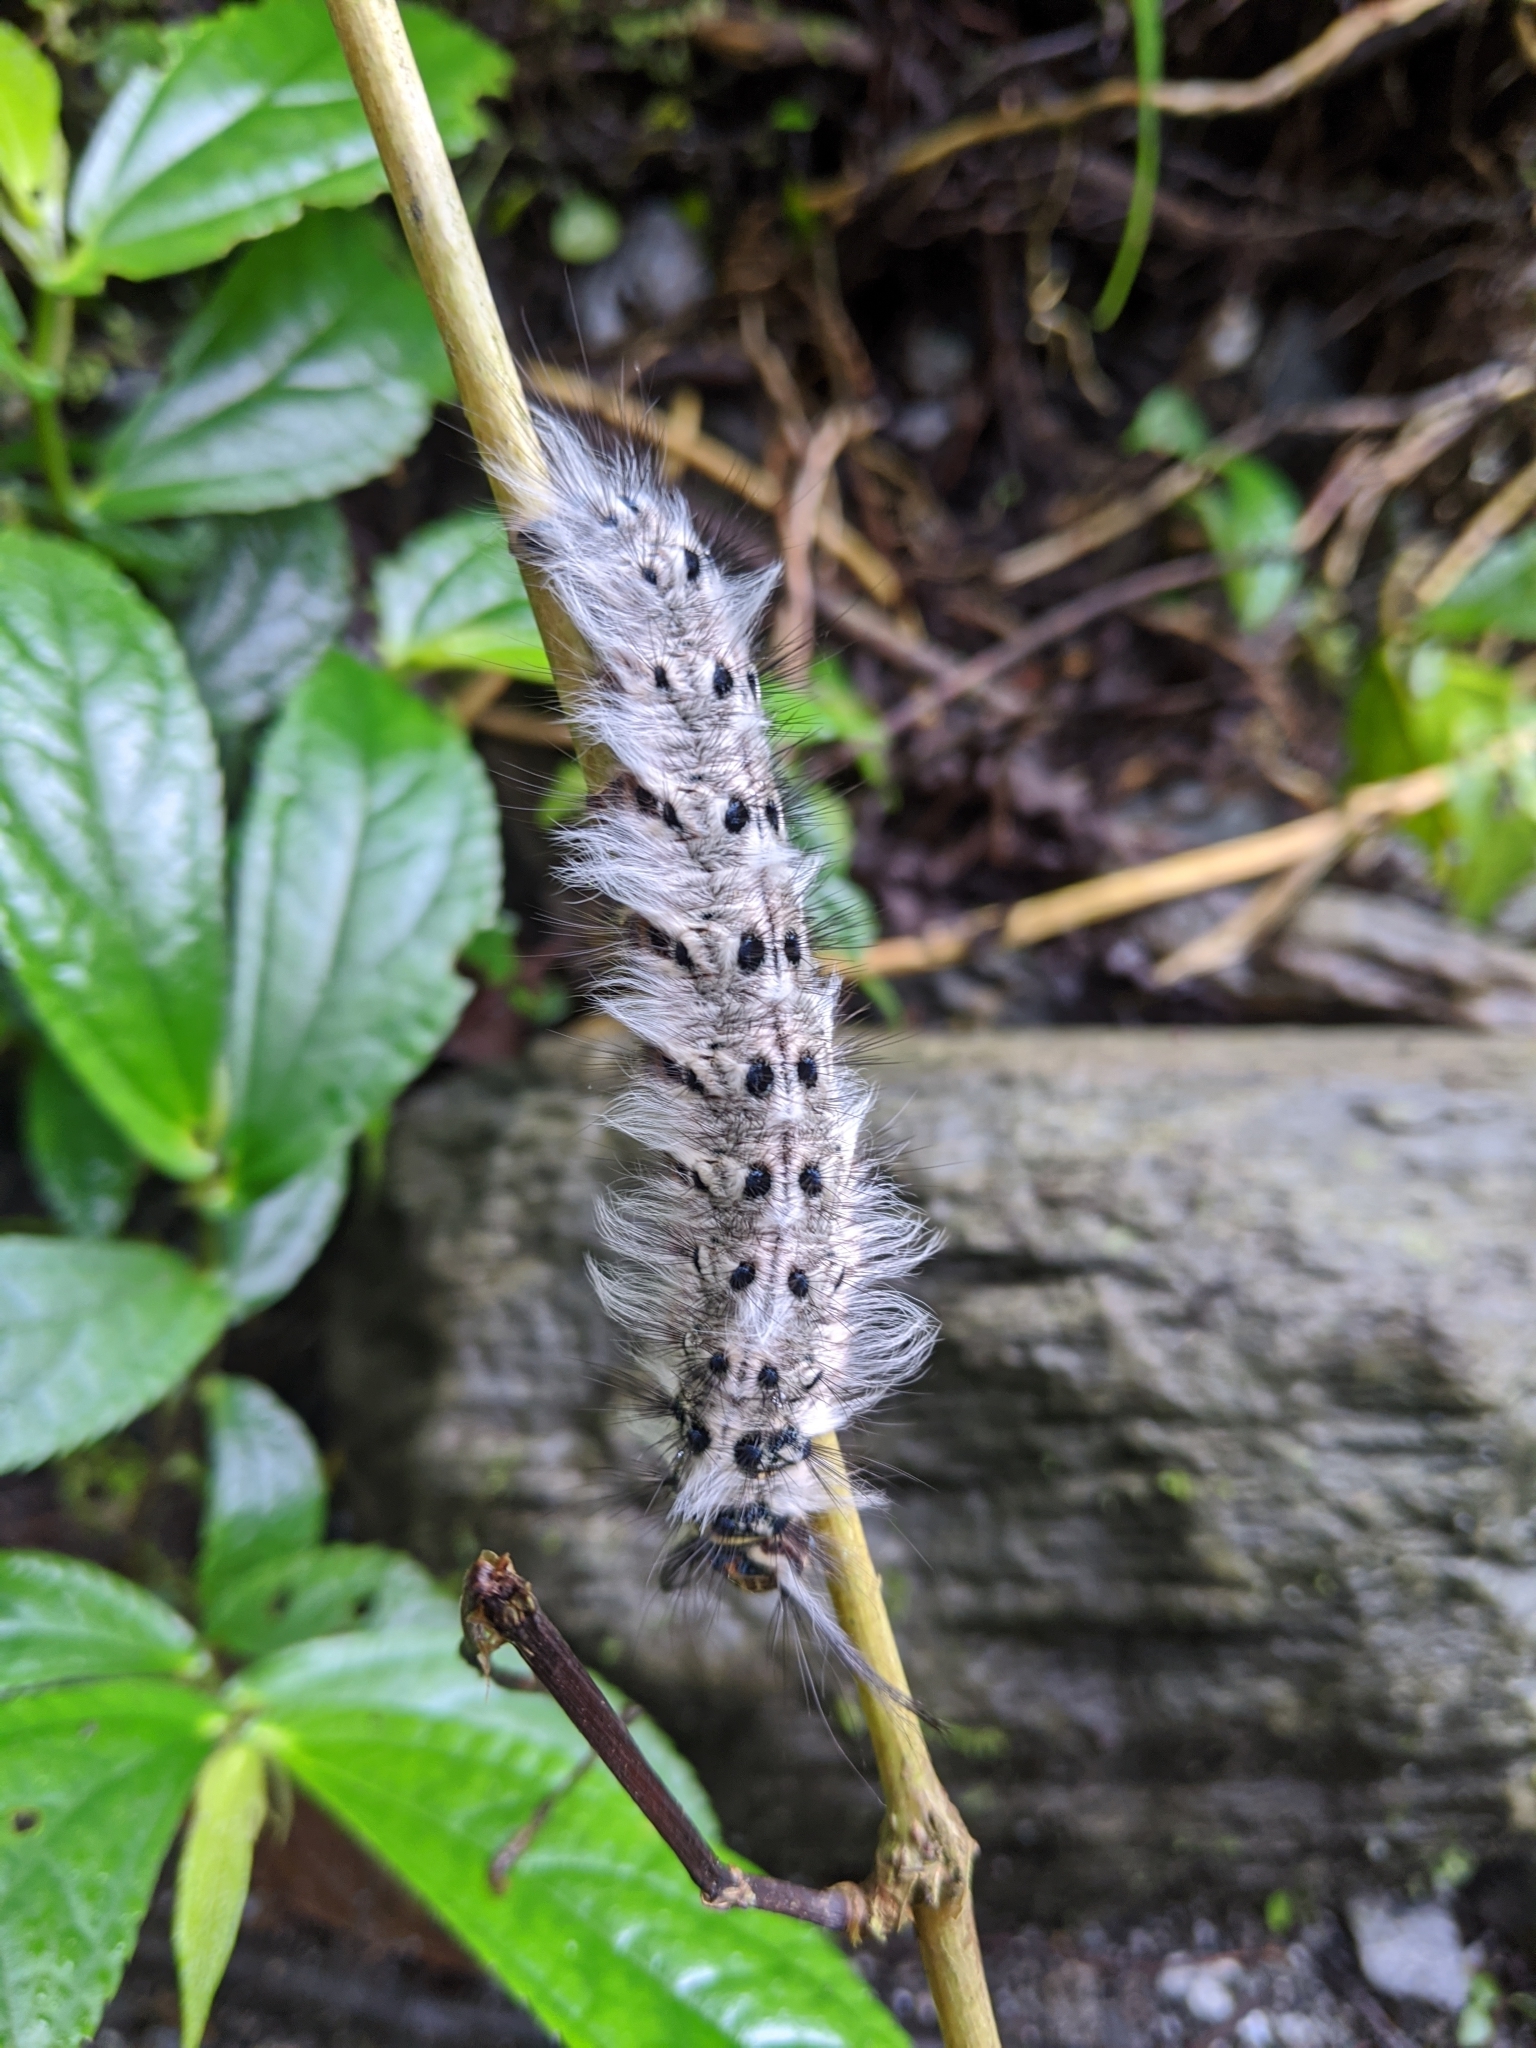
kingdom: Animalia
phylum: Arthropoda
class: Insecta
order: Lepidoptera
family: Lasiocampidae
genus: Trabala
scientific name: Trabala vishnou
